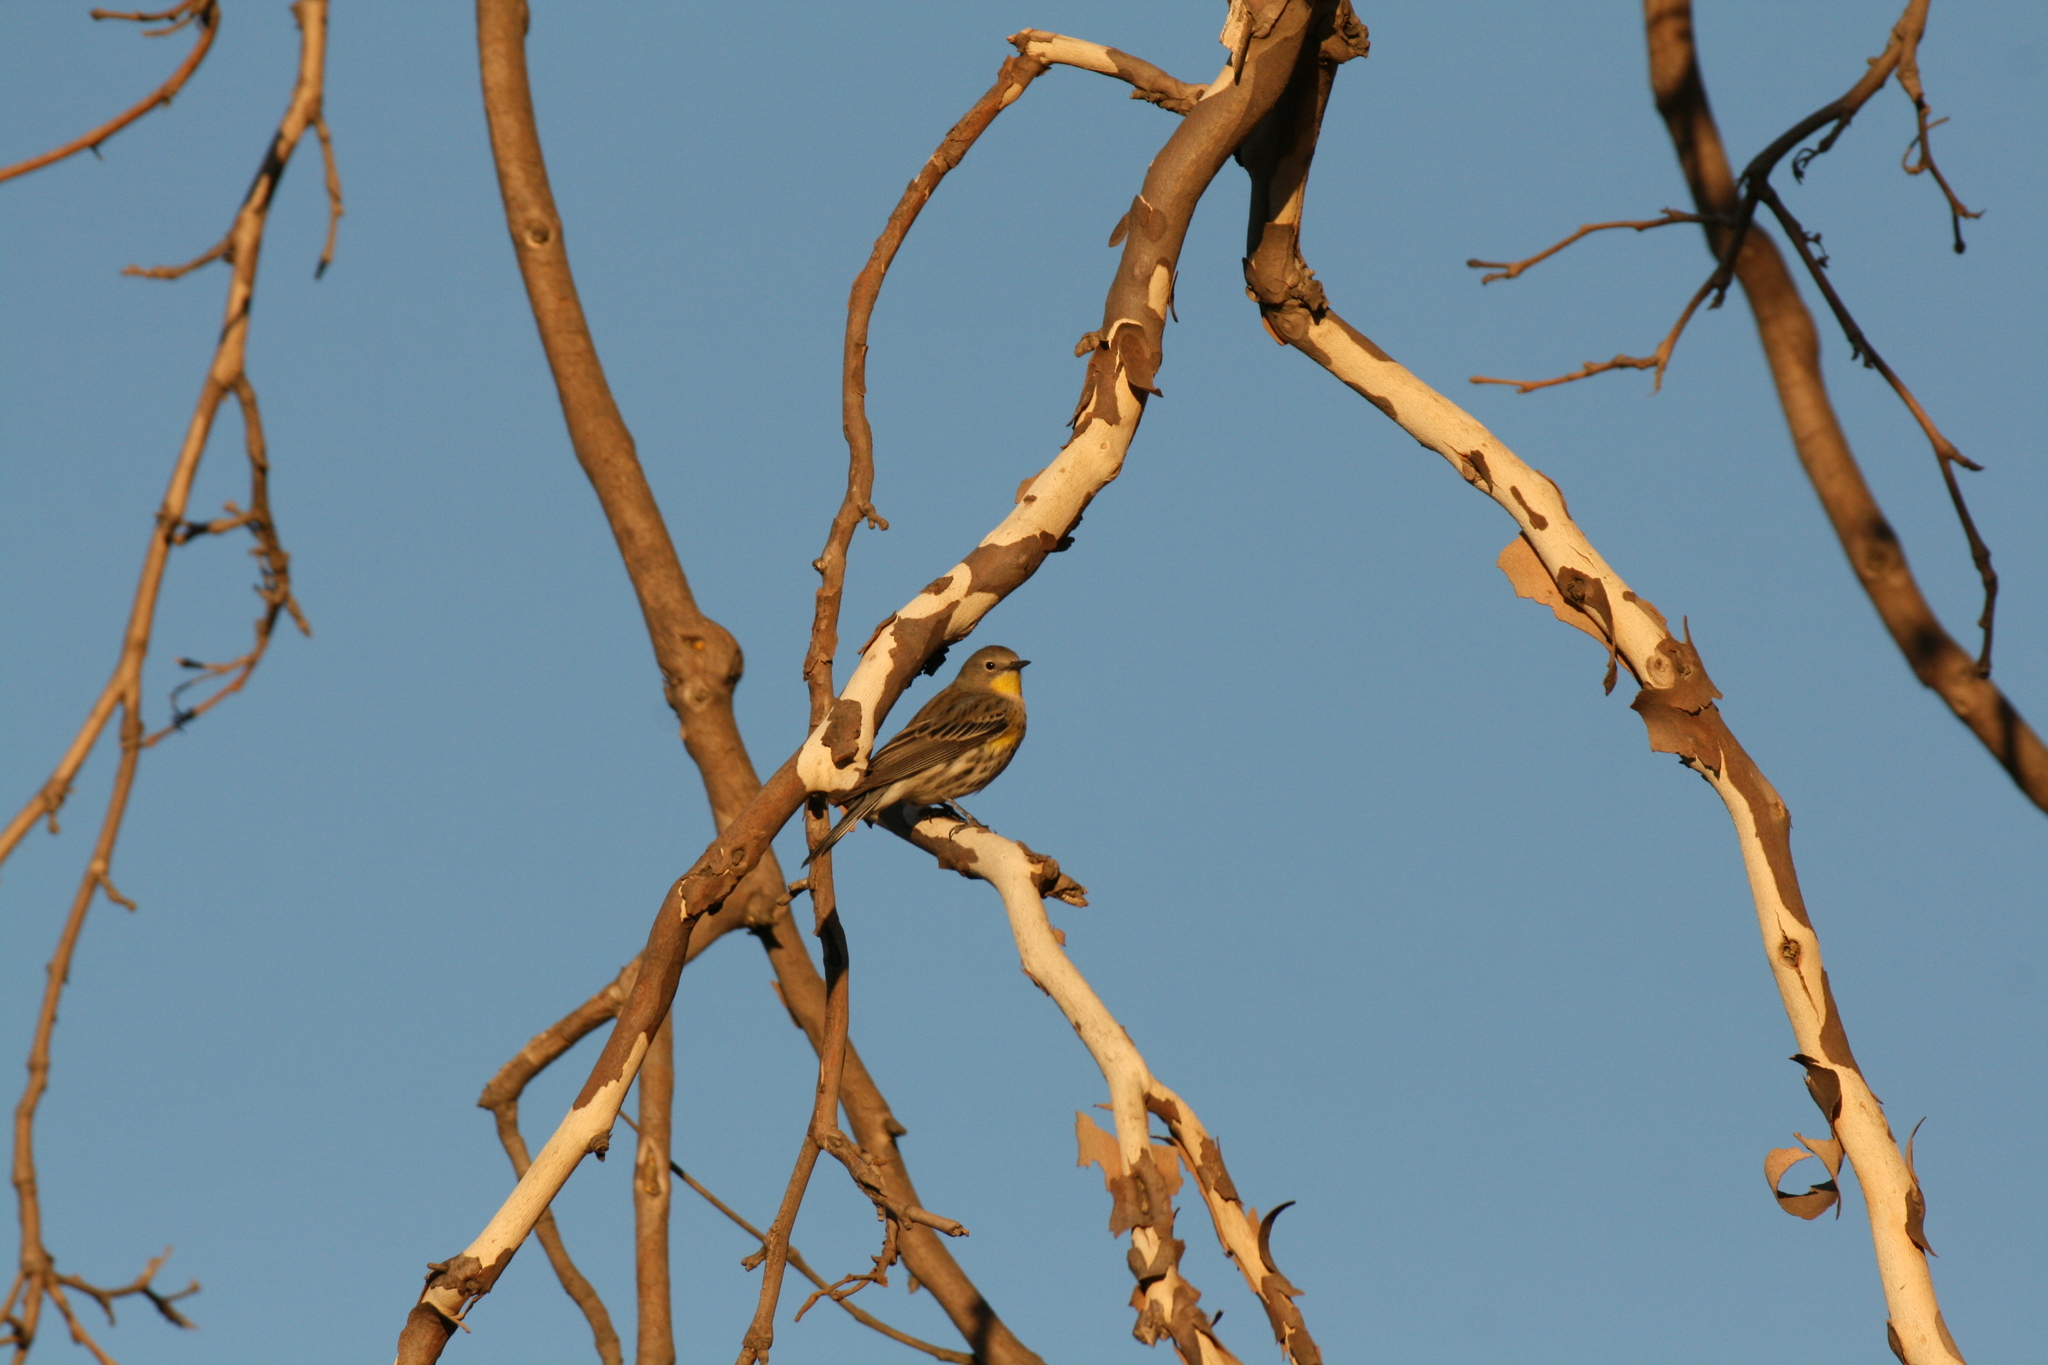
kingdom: Animalia
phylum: Chordata
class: Aves
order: Passeriformes
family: Parulidae
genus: Setophaga
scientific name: Setophaga coronata
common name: Myrtle warbler
